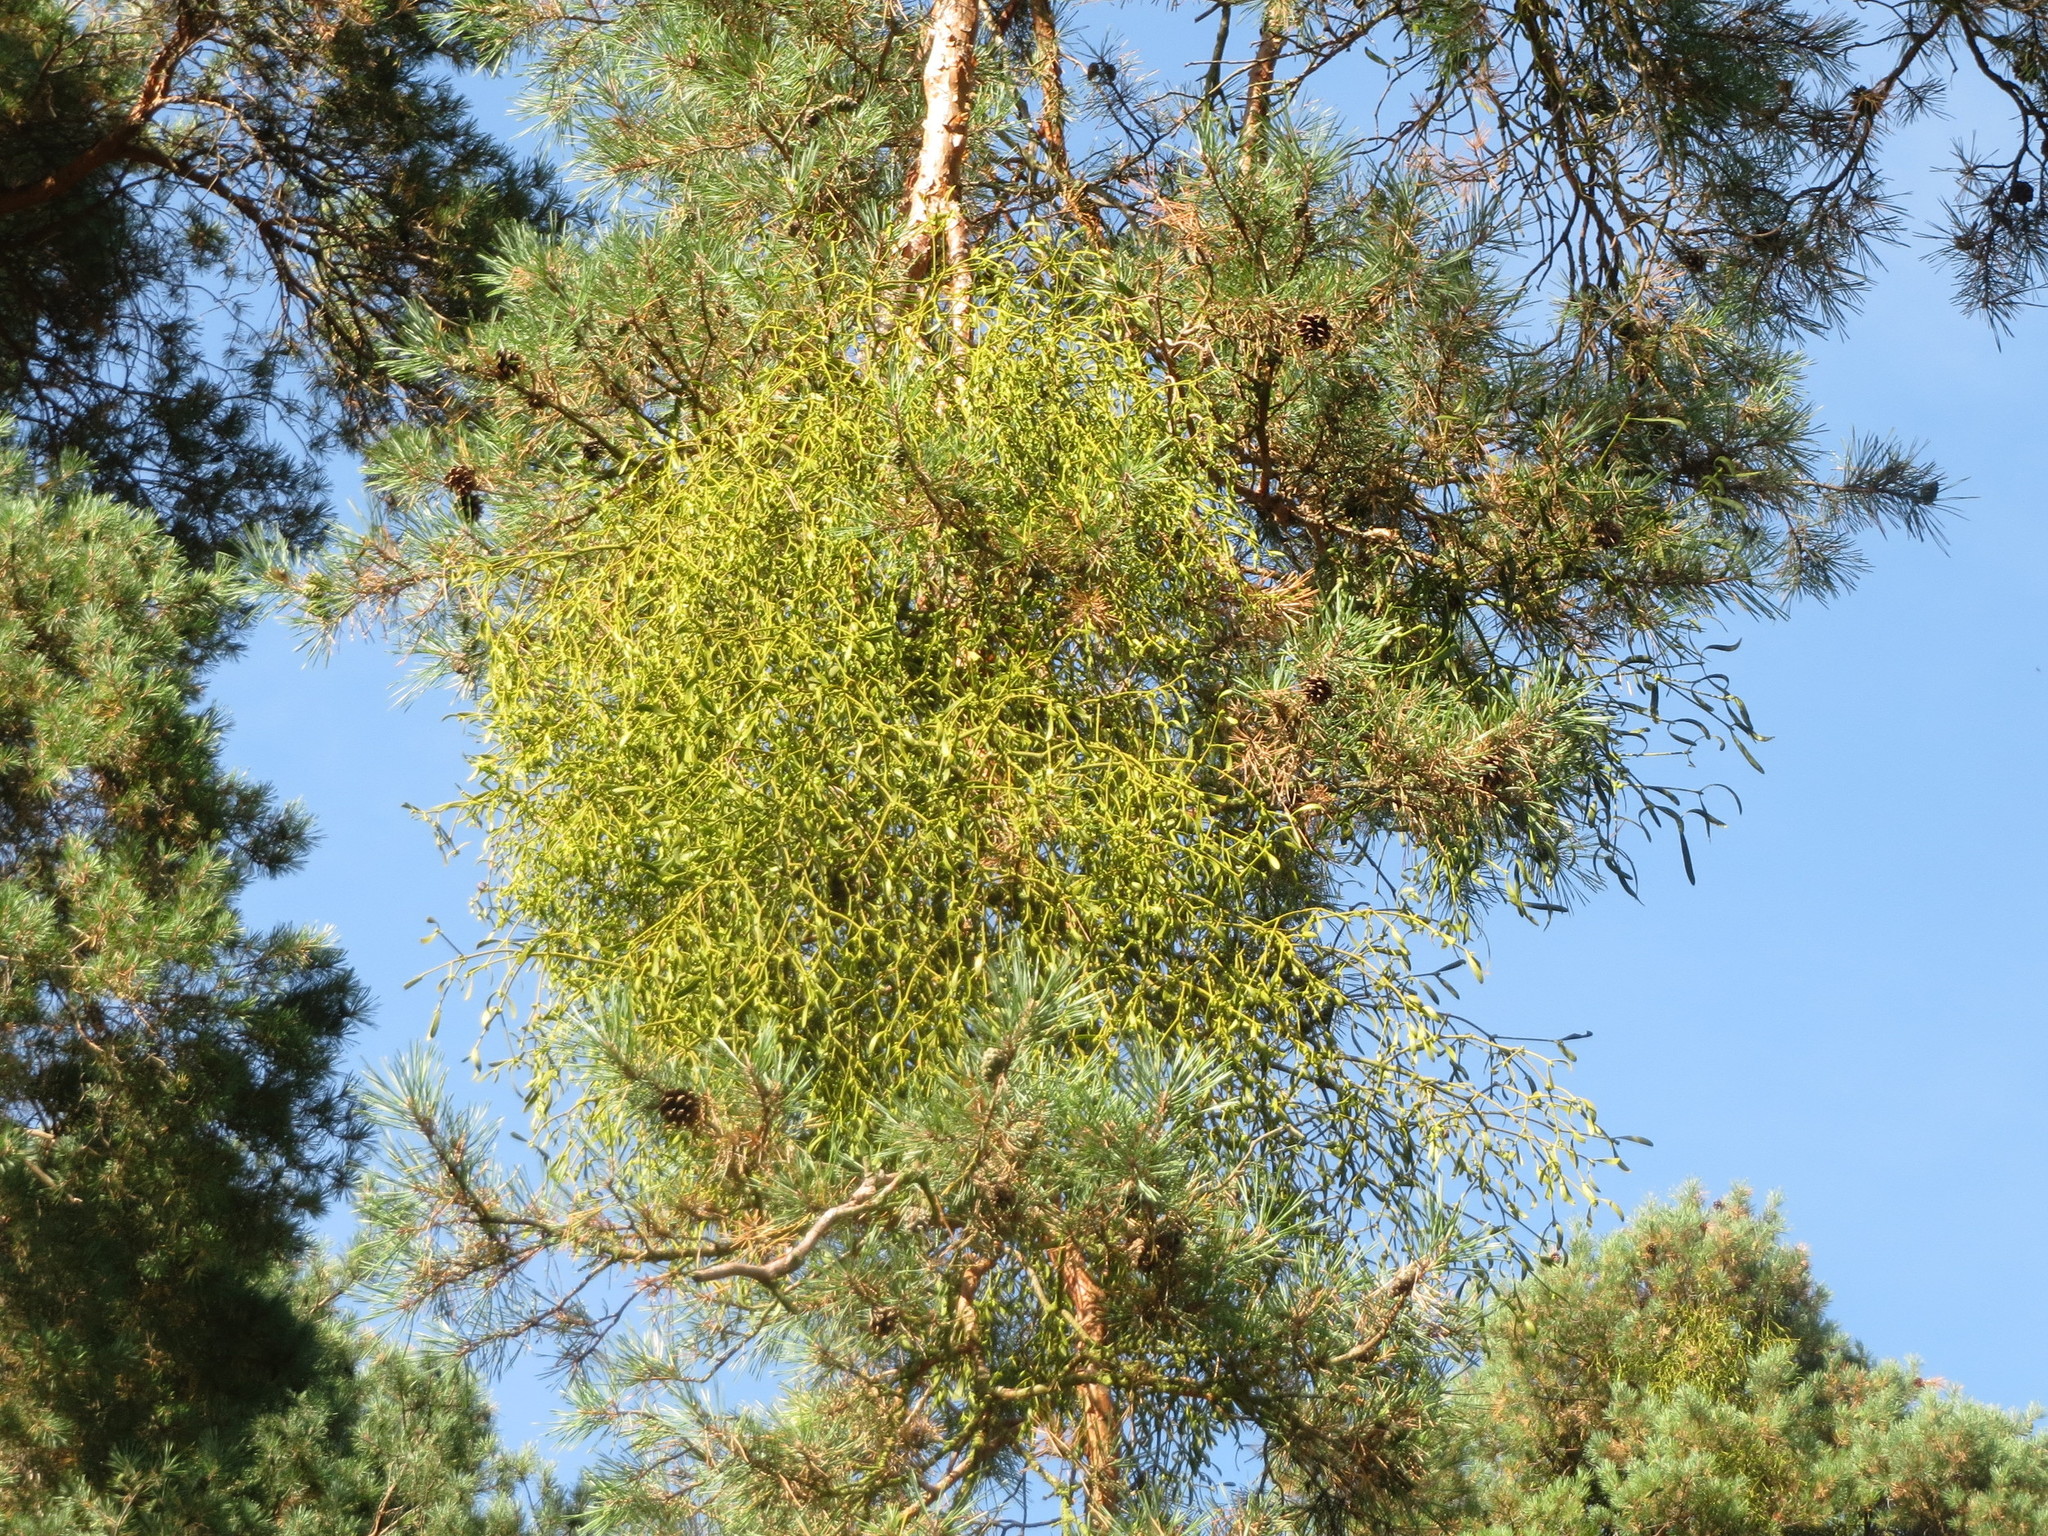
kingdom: Plantae
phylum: Tracheophyta
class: Magnoliopsida
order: Santalales
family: Viscaceae
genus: Viscum
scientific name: Viscum laxum
